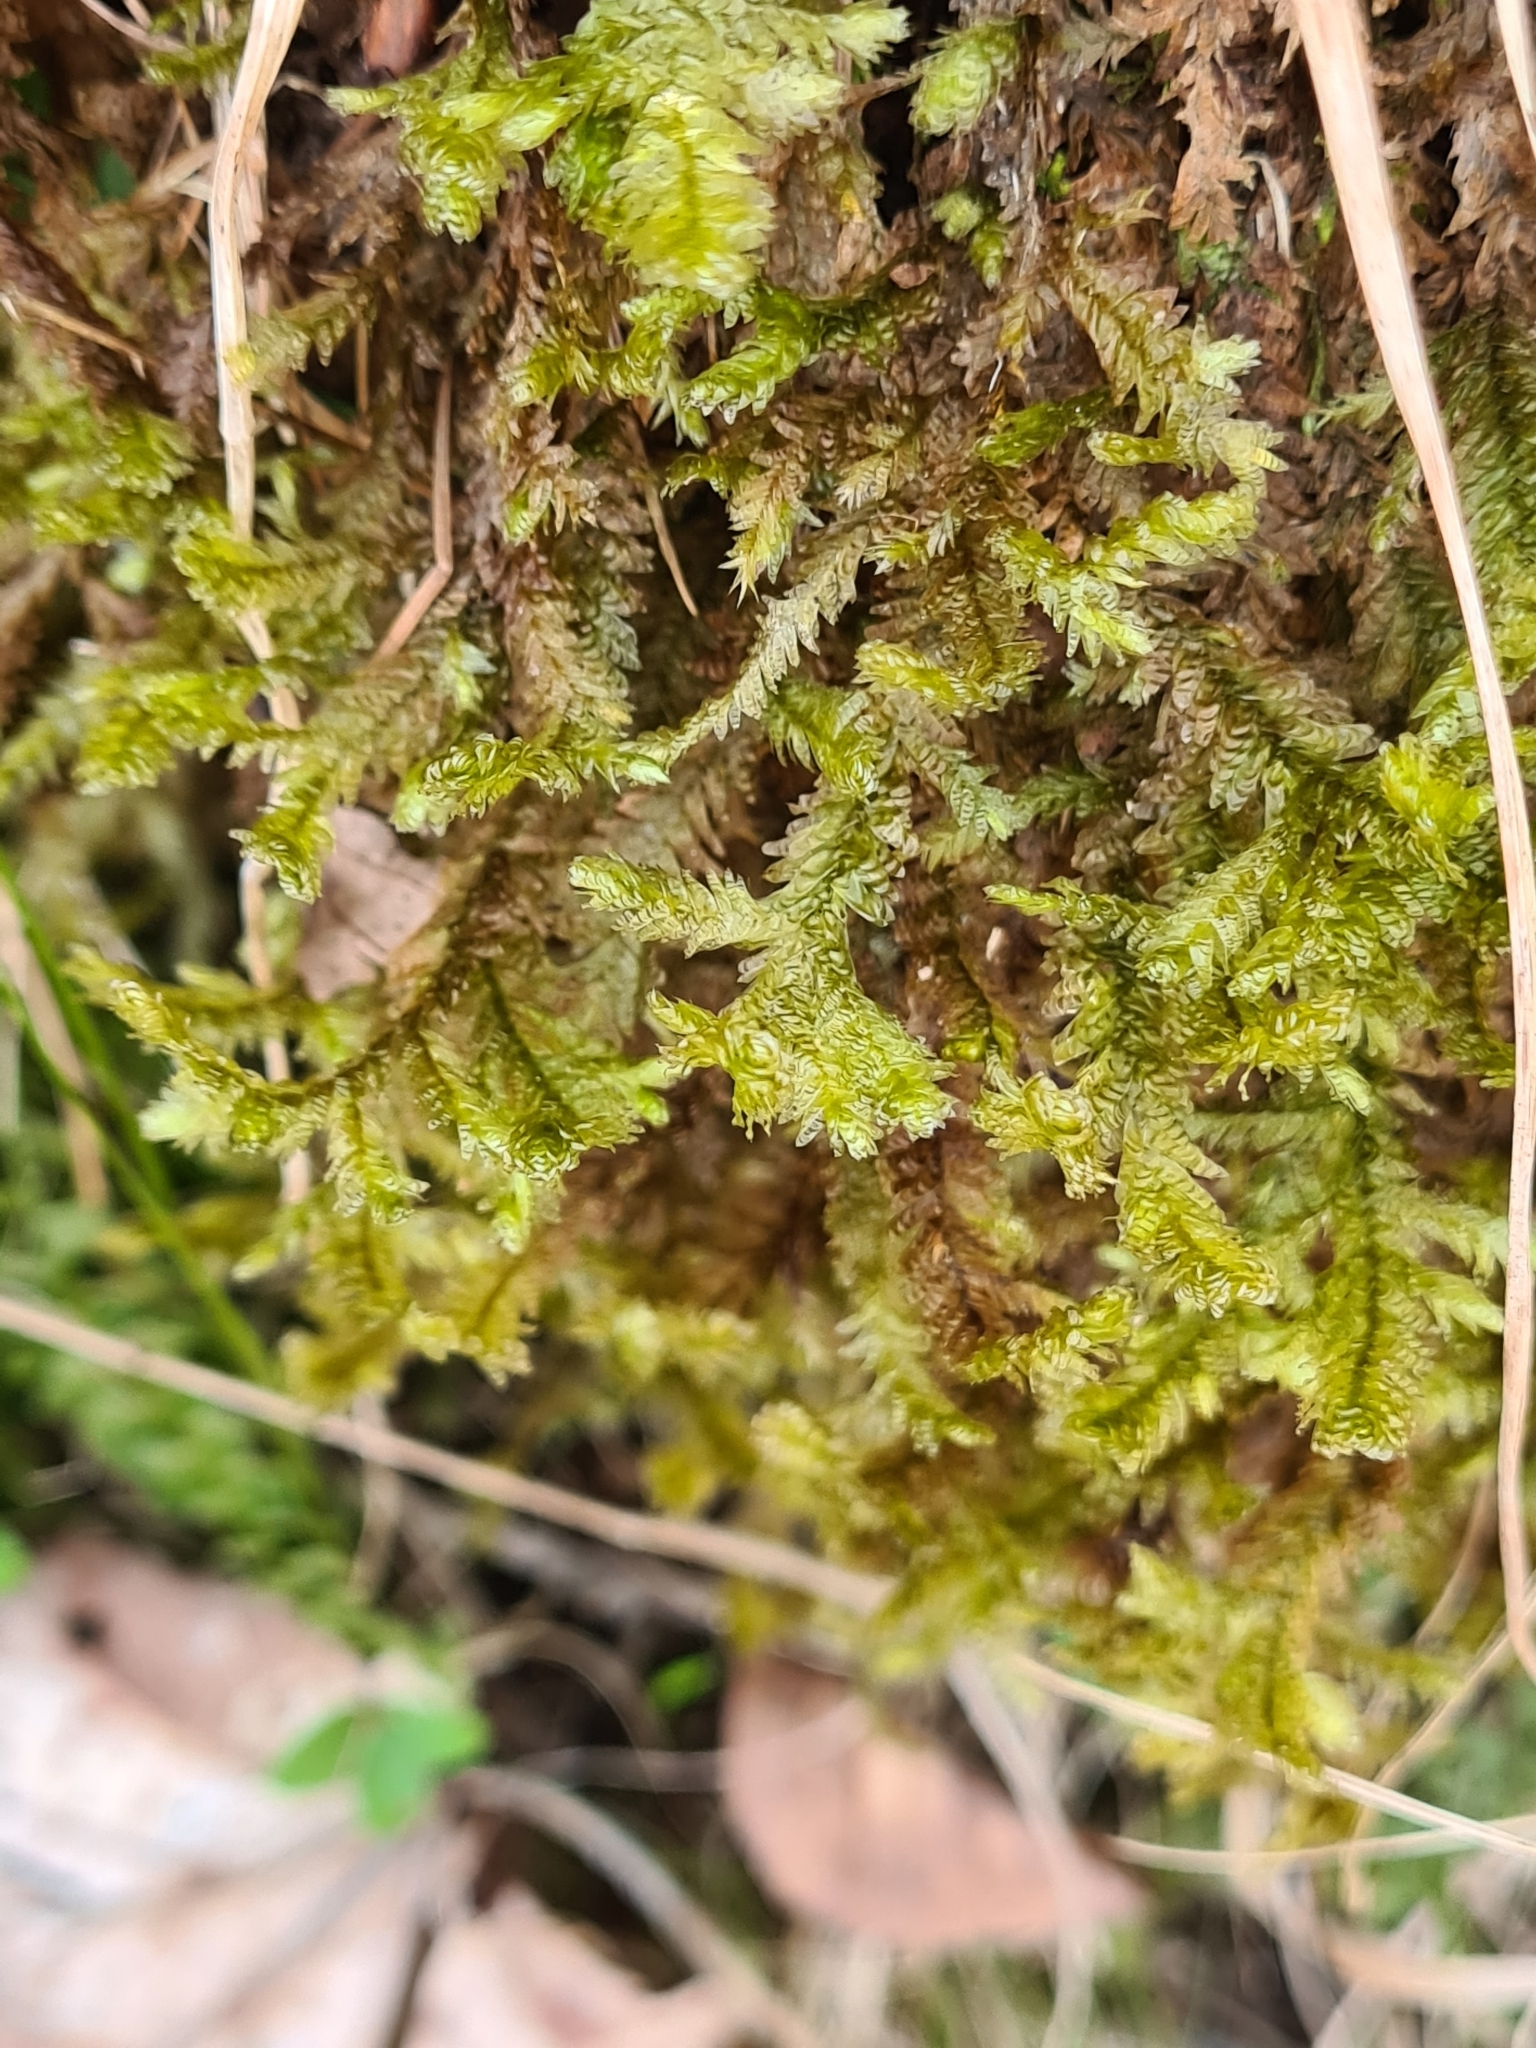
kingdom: Plantae
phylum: Bryophyta
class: Bryopsida
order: Hypnales
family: Neckeraceae
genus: Exsertotheca
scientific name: Exsertotheca crispa
